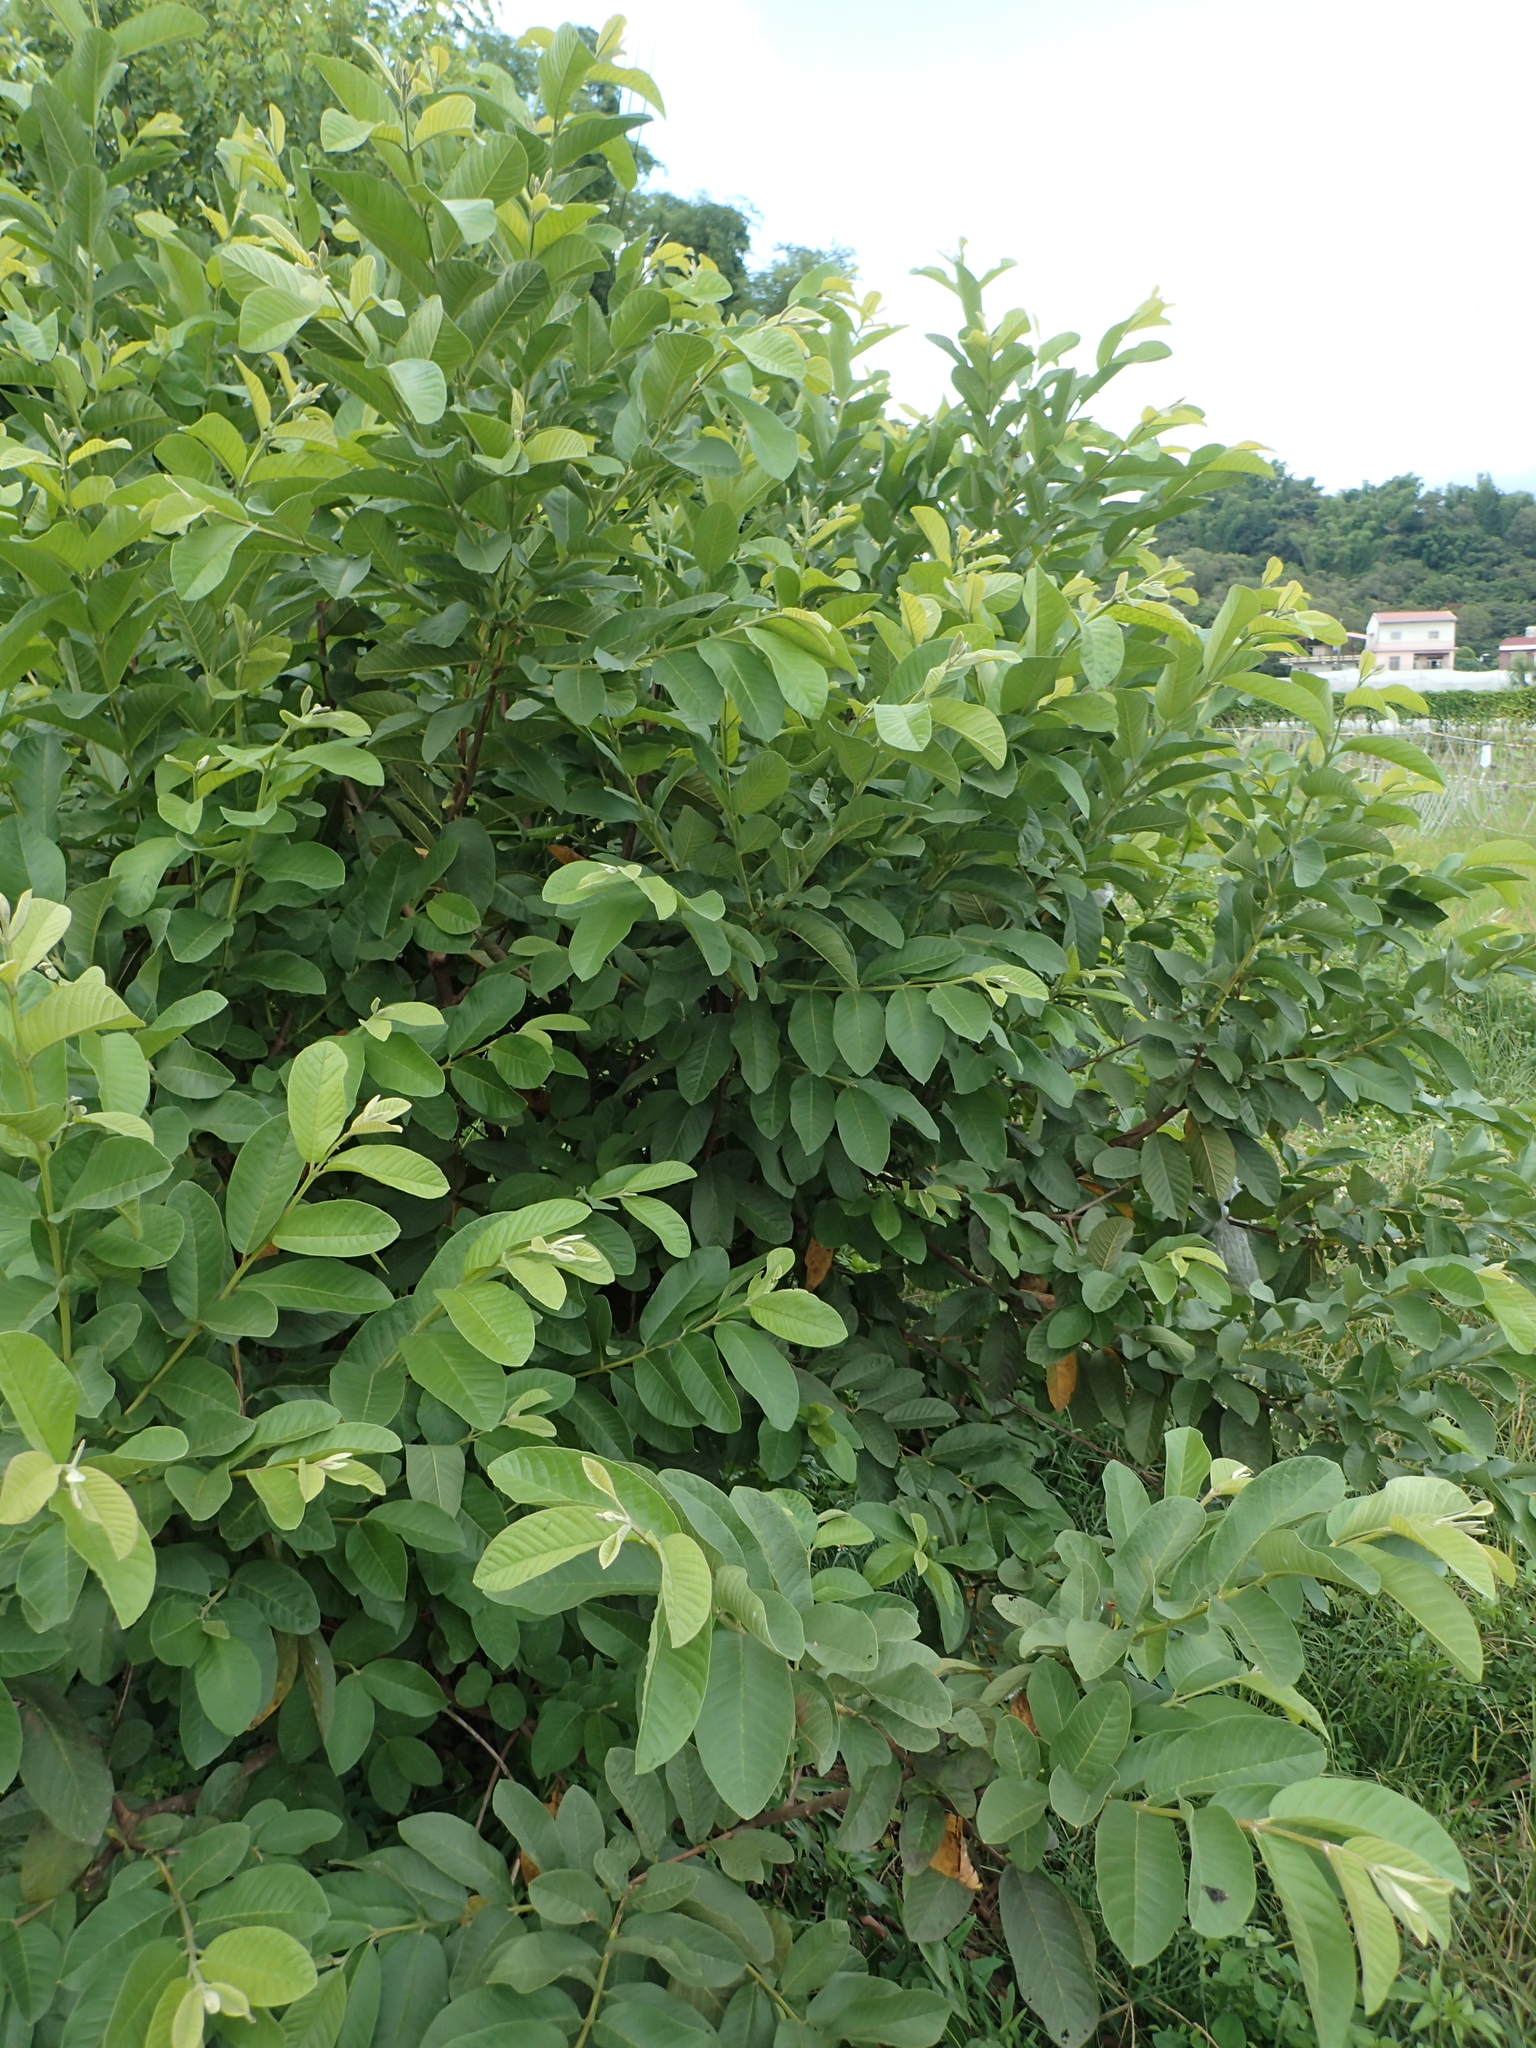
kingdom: Plantae
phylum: Tracheophyta
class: Magnoliopsida
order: Myrtales
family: Myrtaceae
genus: Psidium
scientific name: Psidium guajava
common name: Guava
